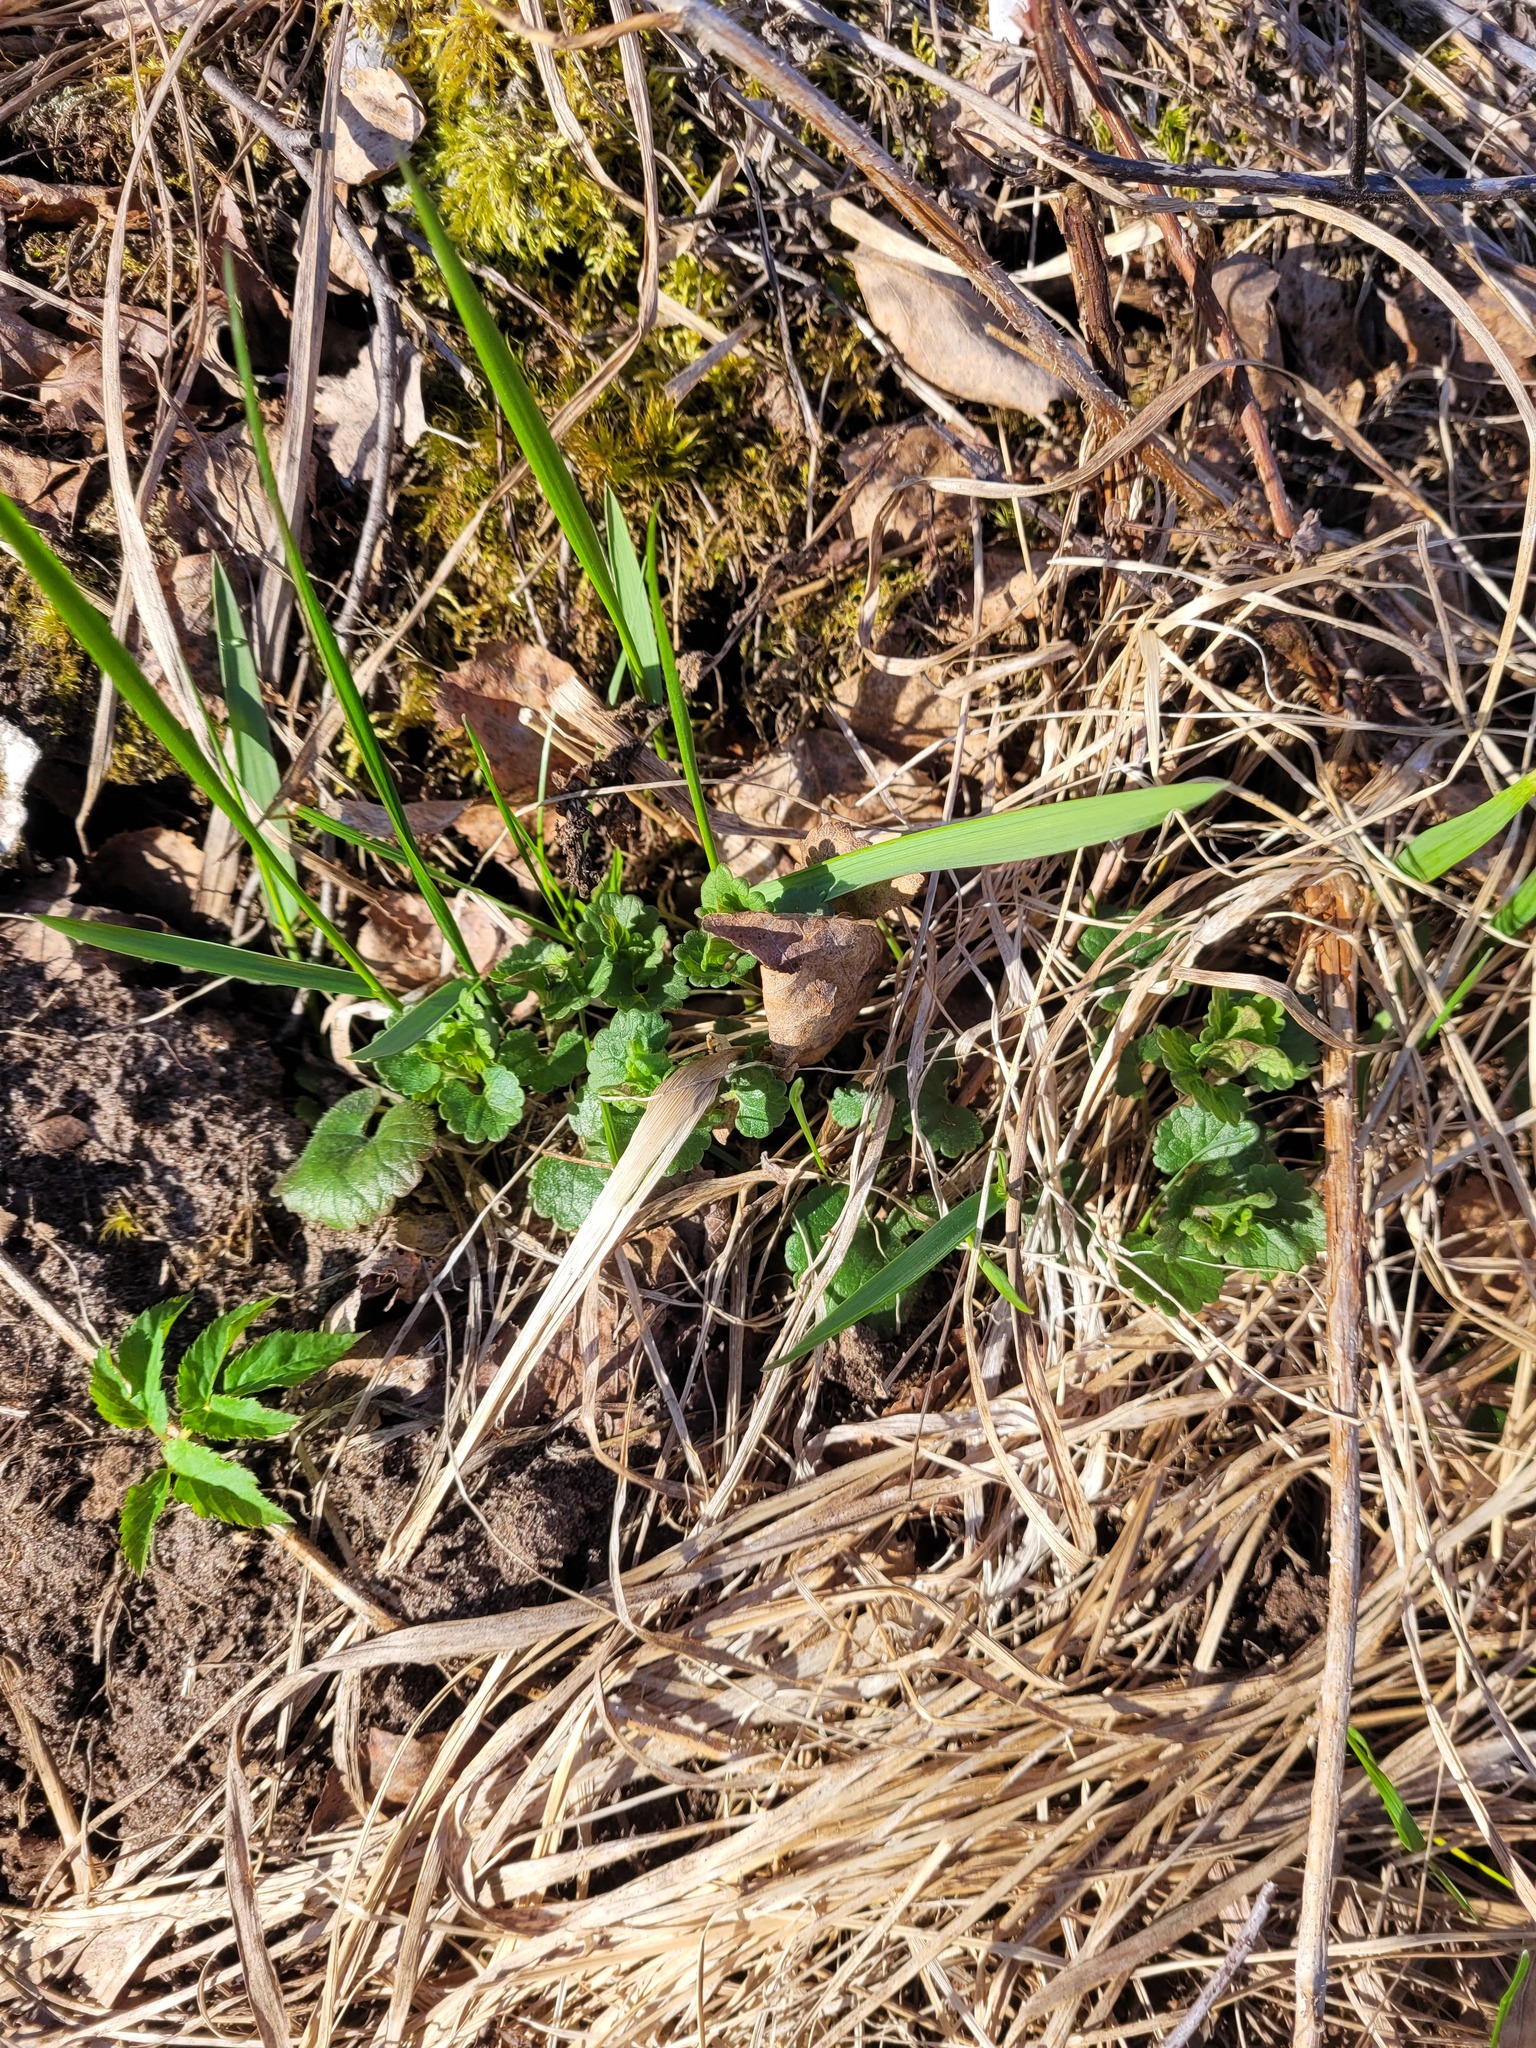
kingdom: Plantae
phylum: Tracheophyta
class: Magnoliopsida
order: Lamiales
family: Lamiaceae
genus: Glechoma
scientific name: Glechoma hederacea
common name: Ground ivy
